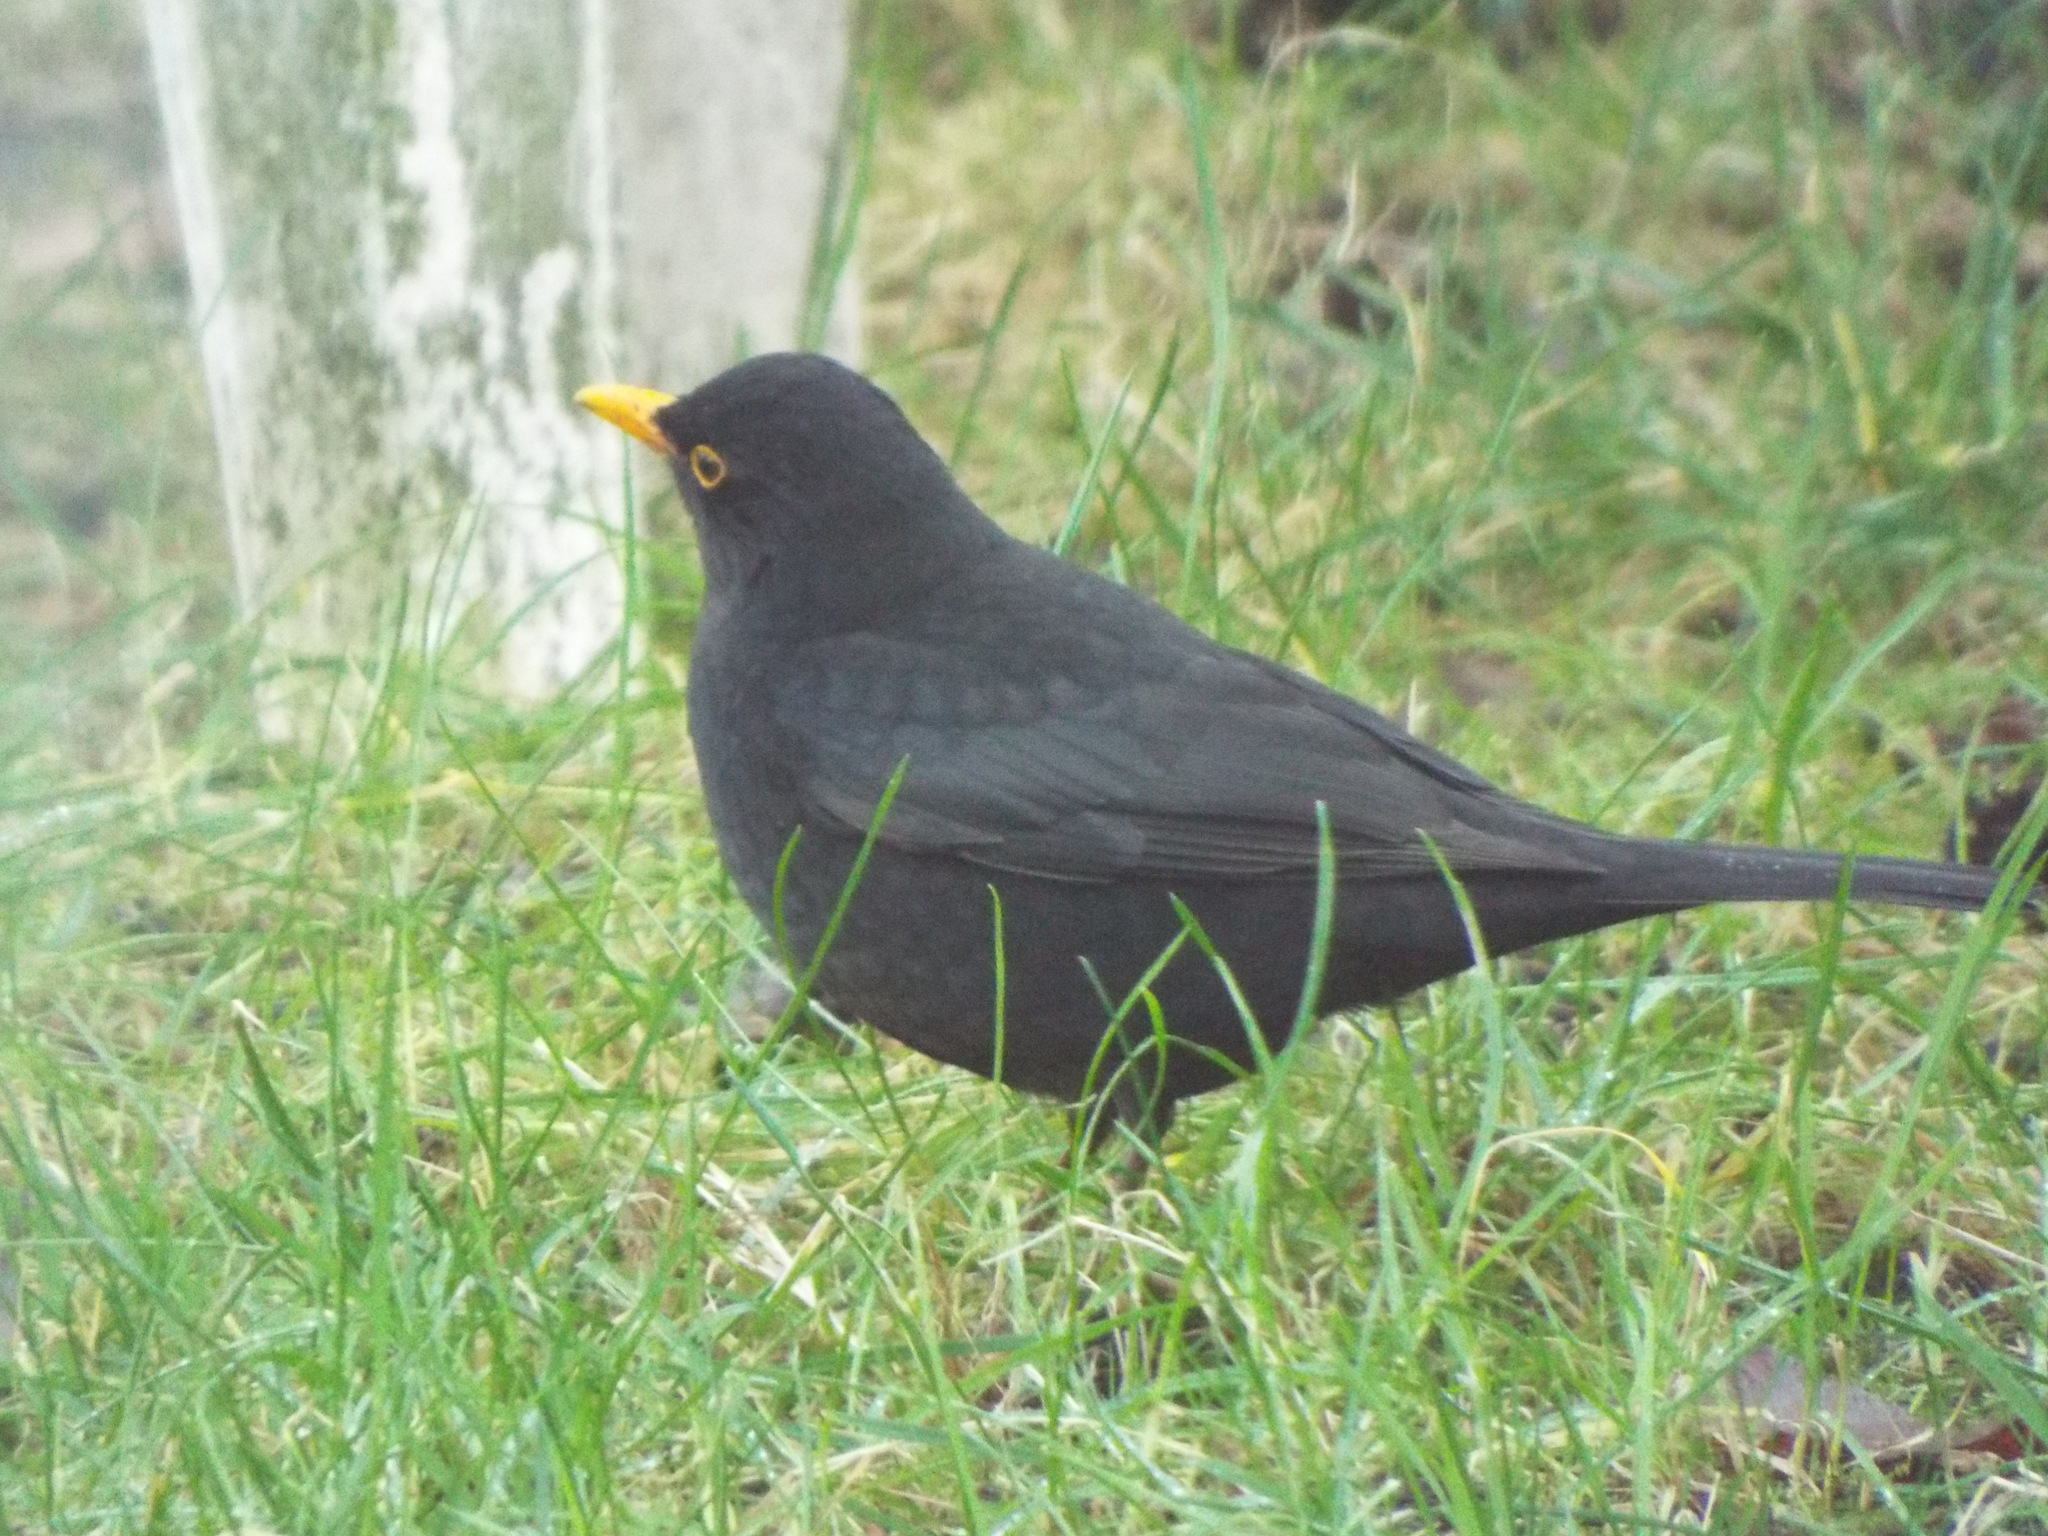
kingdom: Animalia
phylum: Chordata
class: Aves
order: Passeriformes
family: Turdidae
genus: Turdus
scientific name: Turdus merula
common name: Common blackbird
